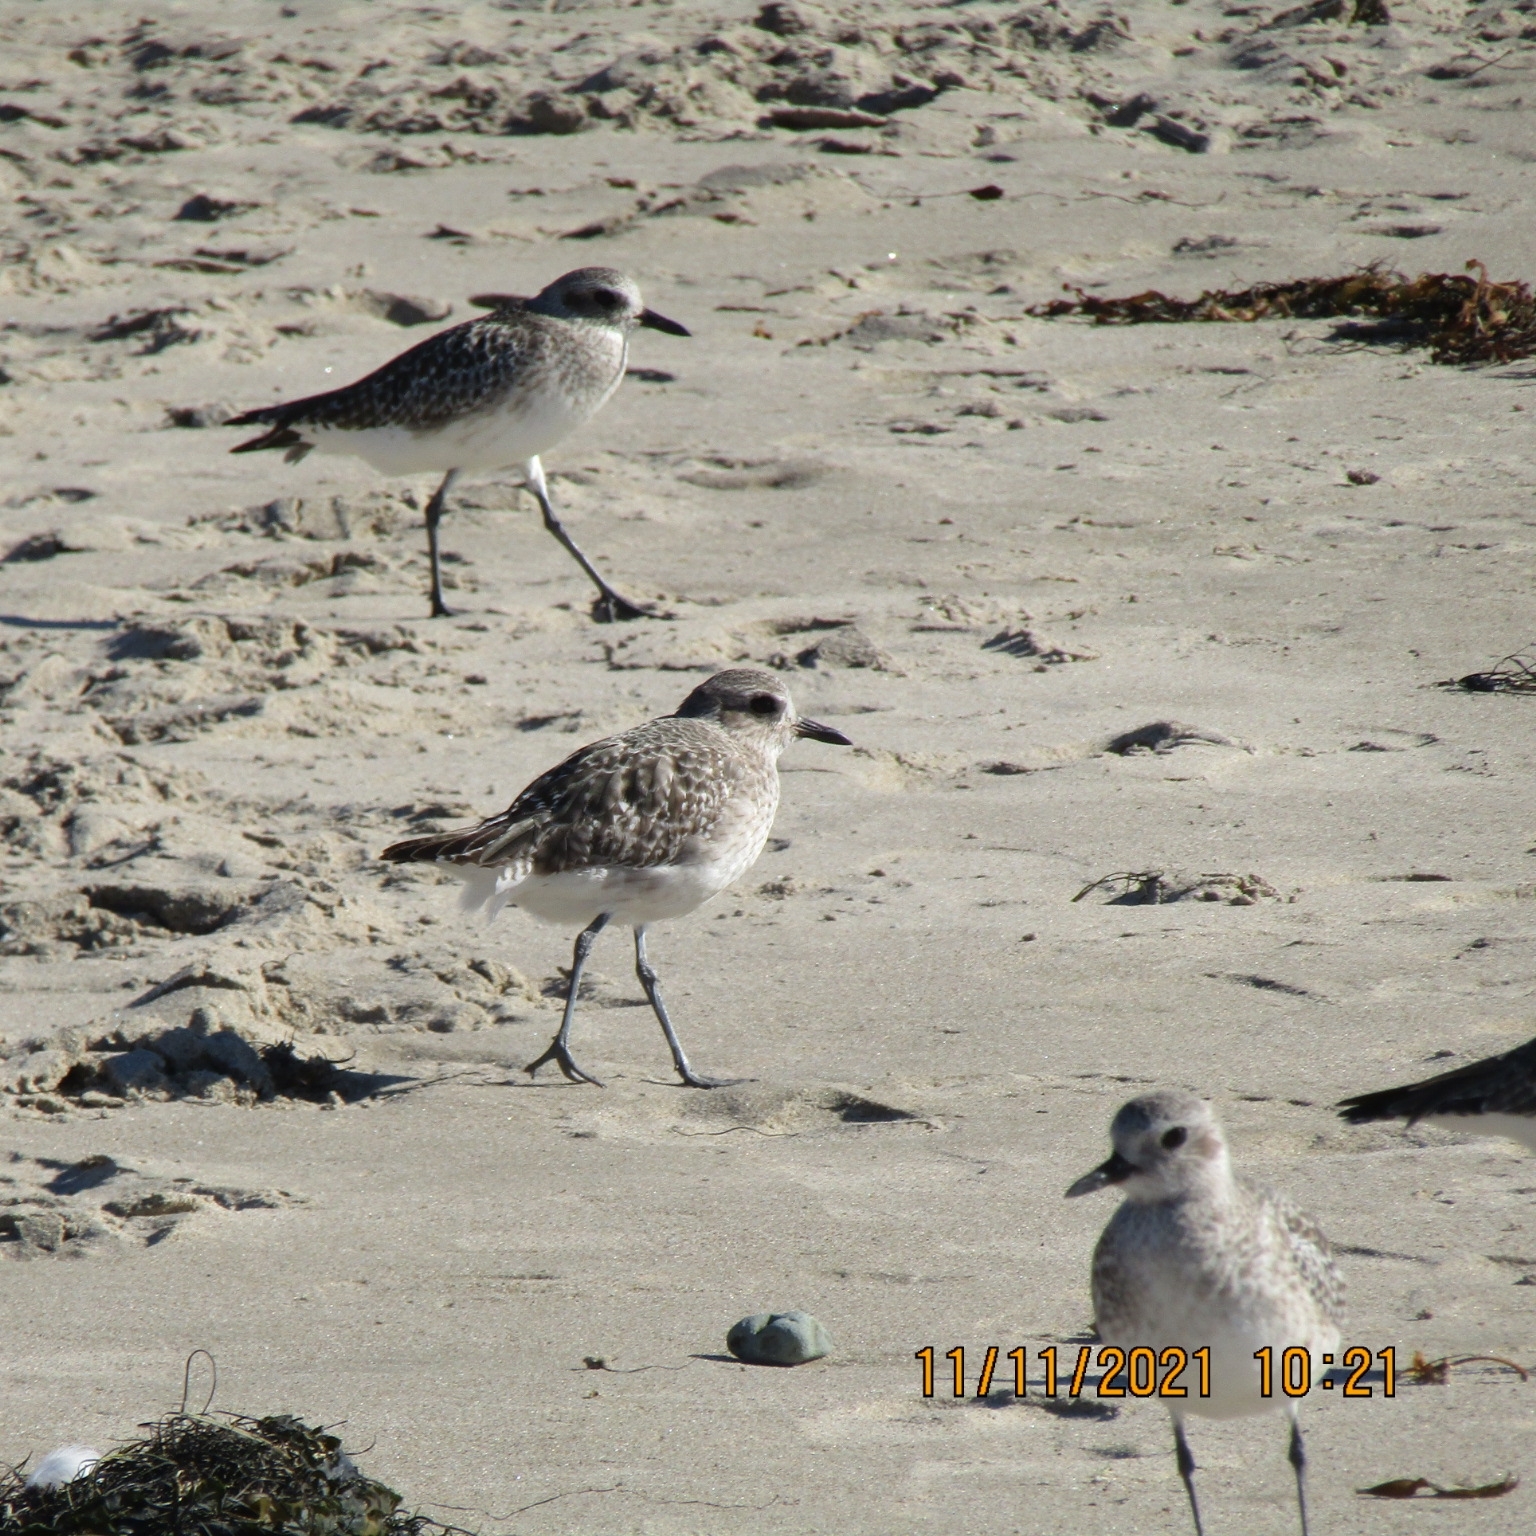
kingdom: Animalia
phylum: Chordata
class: Aves
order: Charadriiformes
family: Charadriidae
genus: Pluvialis
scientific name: Pluvialis squatarola
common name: Grey plover
